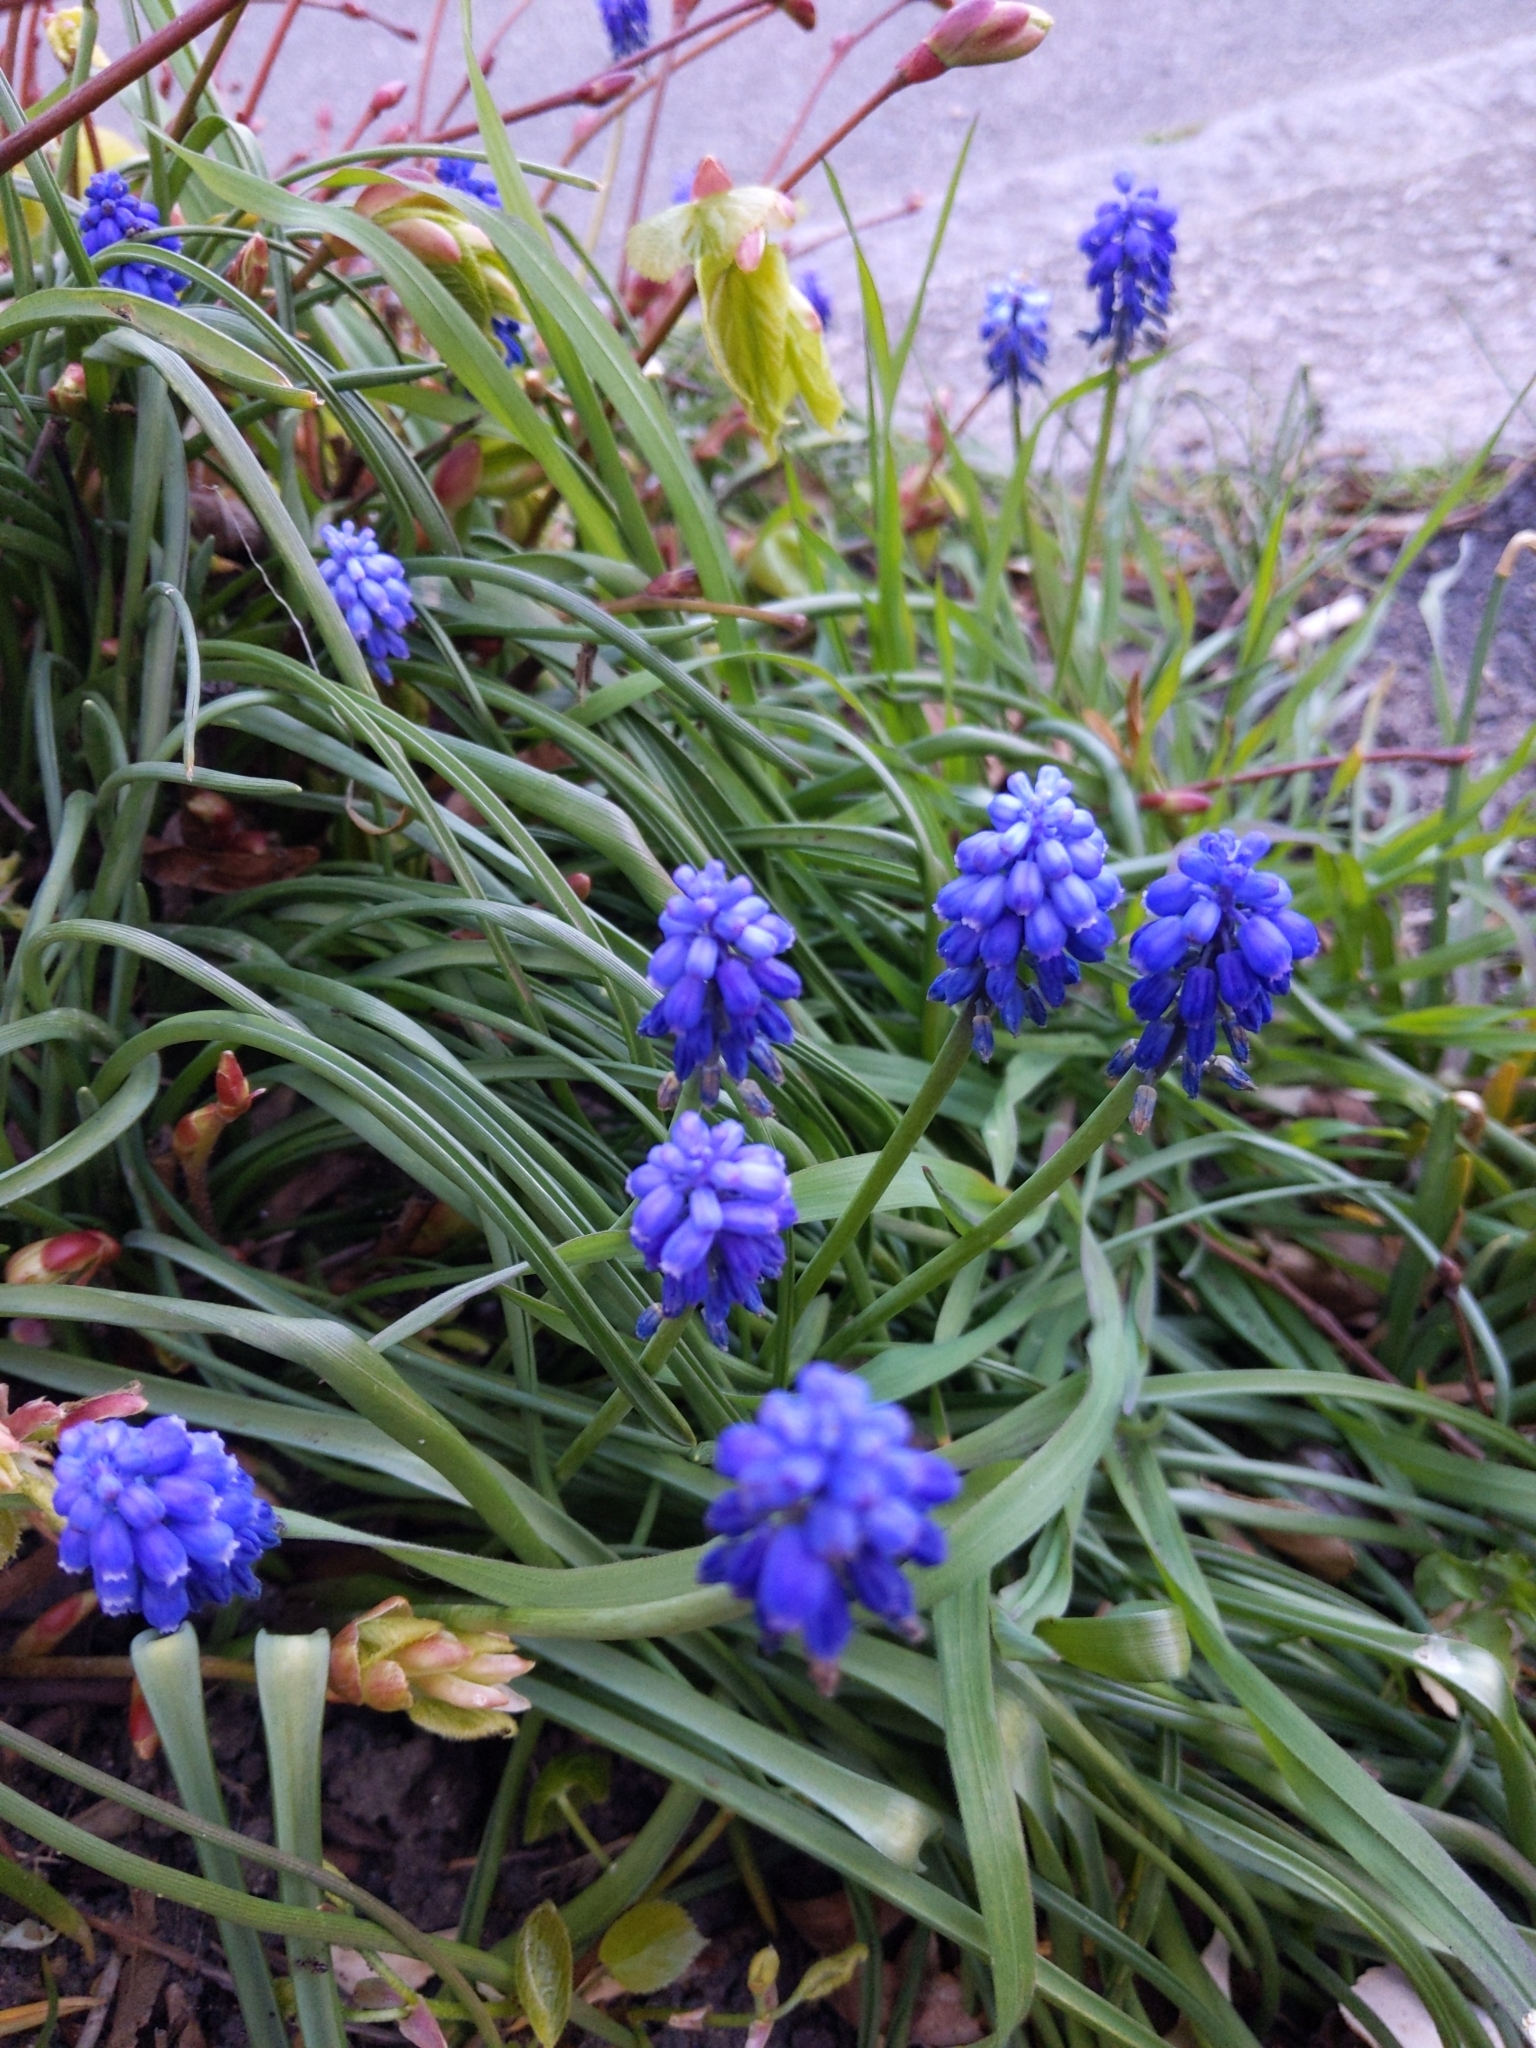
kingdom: Plantae
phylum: Tracheophyta
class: Liliopsida
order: Asparagales
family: Asparagaceae
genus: Muscari
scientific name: Muscari armeniacum
